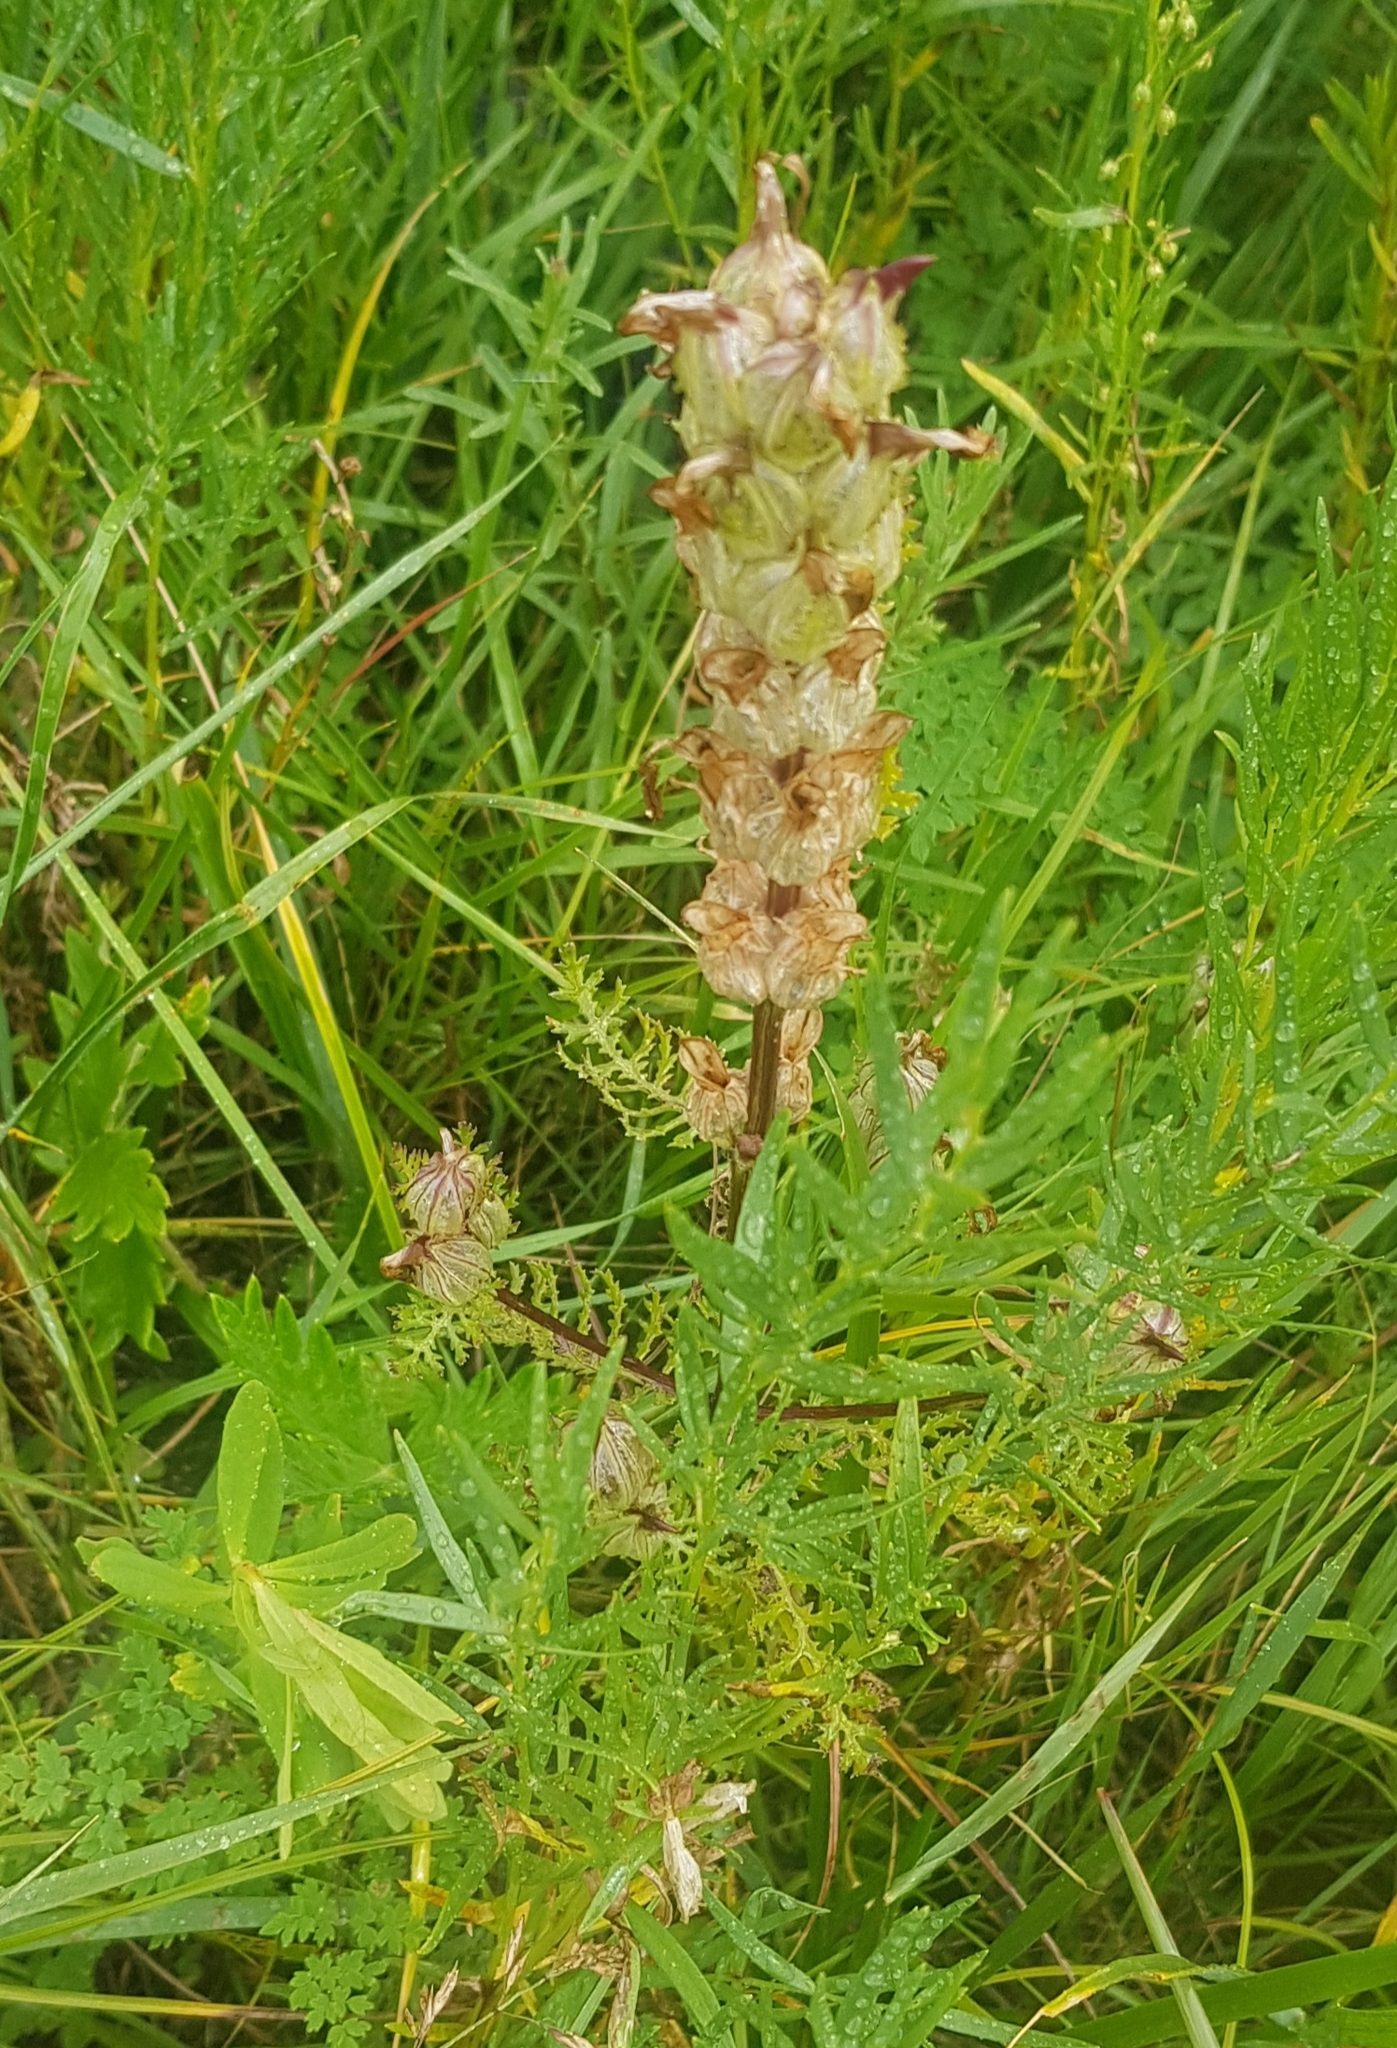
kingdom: Plantae
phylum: Tracheophyta
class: Magnoliopsida
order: Lamiales
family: Orobanchaceae
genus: Pedicularis
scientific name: Pedicularis myriophylla
